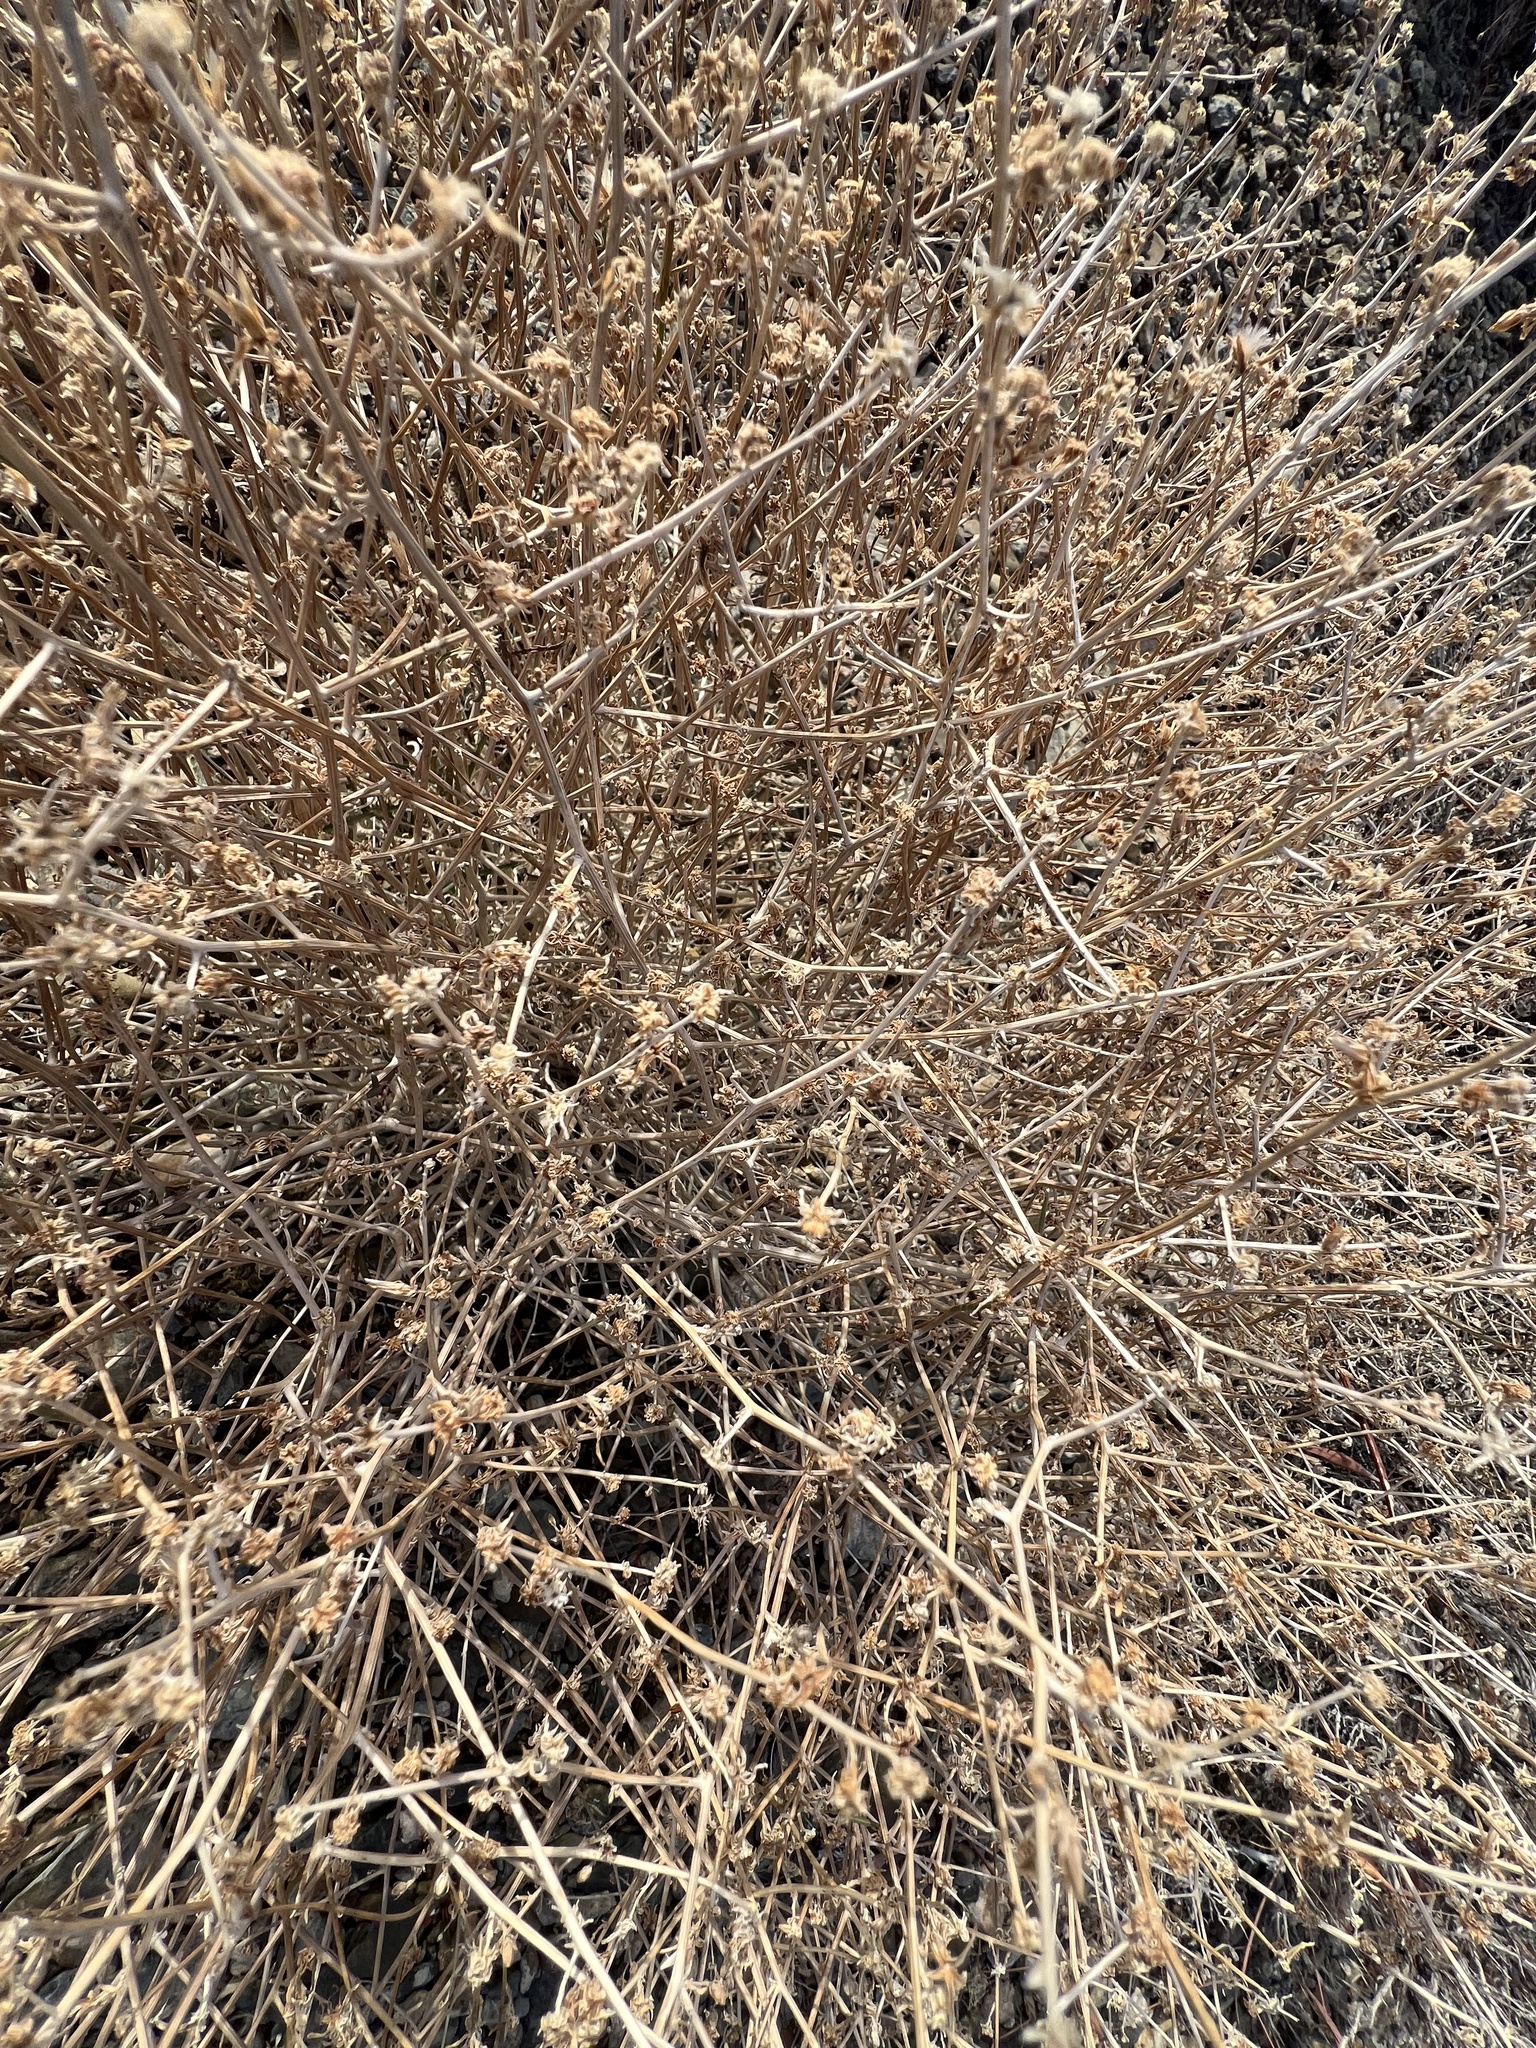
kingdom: Plantae
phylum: Tracheophyta
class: Magnoliopsida
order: Asterales
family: Asteraceae
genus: Stephanomeria
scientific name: Stephanomeria pauciflora
